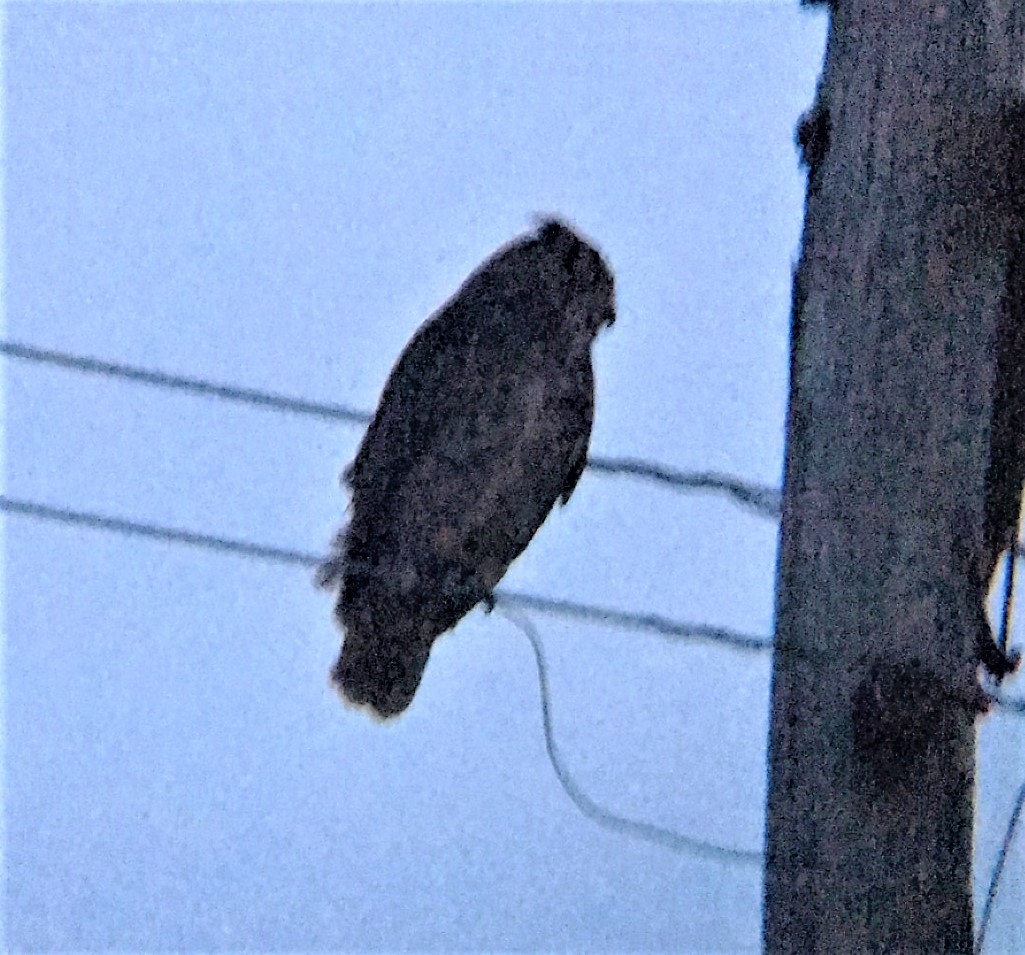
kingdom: Animalia
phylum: Chordata
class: Aves
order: Strigiformes
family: Strigidae
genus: Bubo
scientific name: Bubo virginianus
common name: Great horned owl
